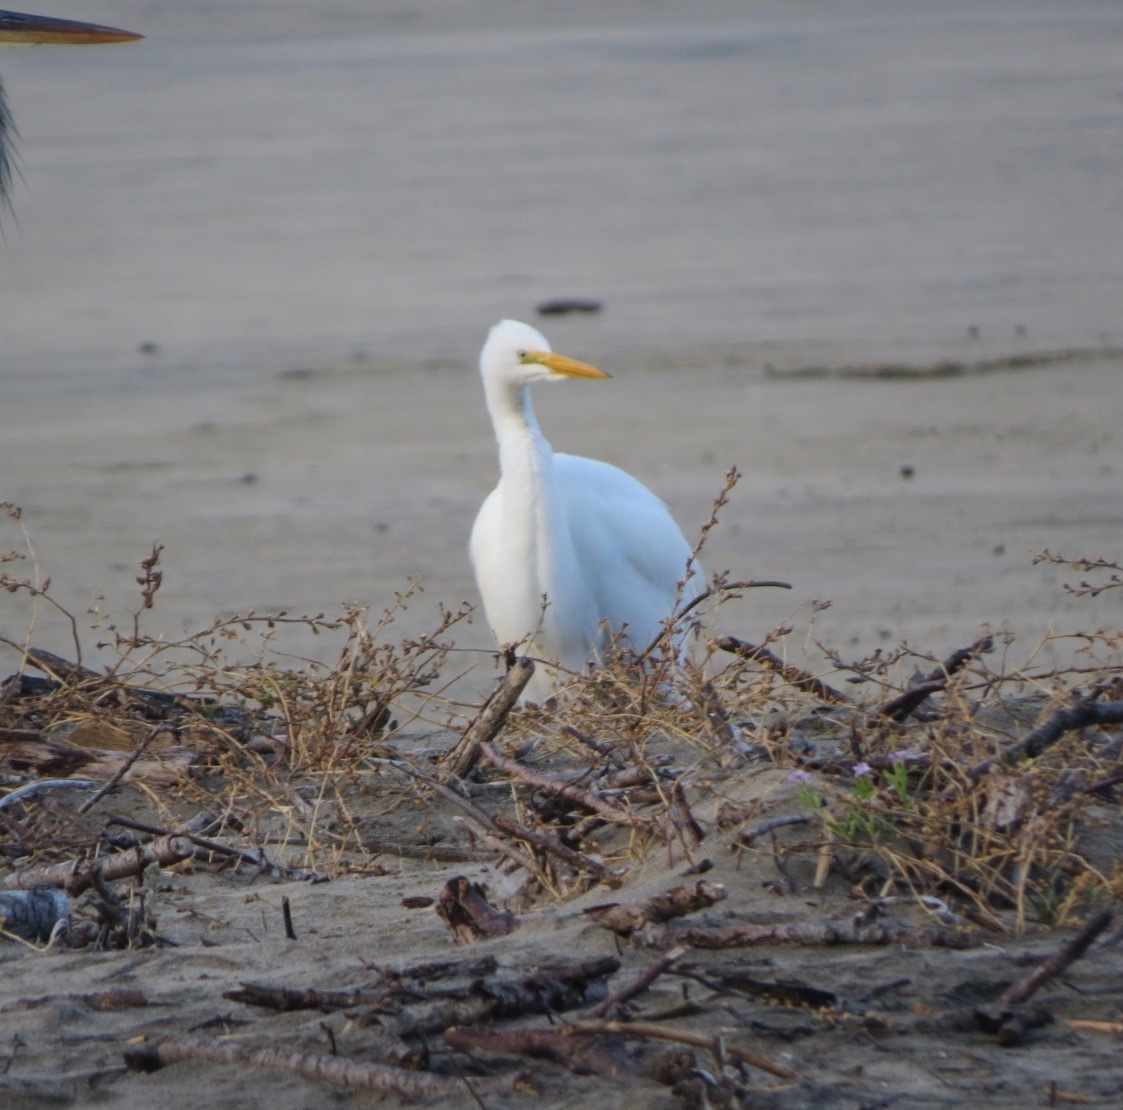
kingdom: Animalia
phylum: Chordata
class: Aves
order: Pelecaniformes
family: Ardeidae
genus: Ardea
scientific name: Ardea alba
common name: Great egret
